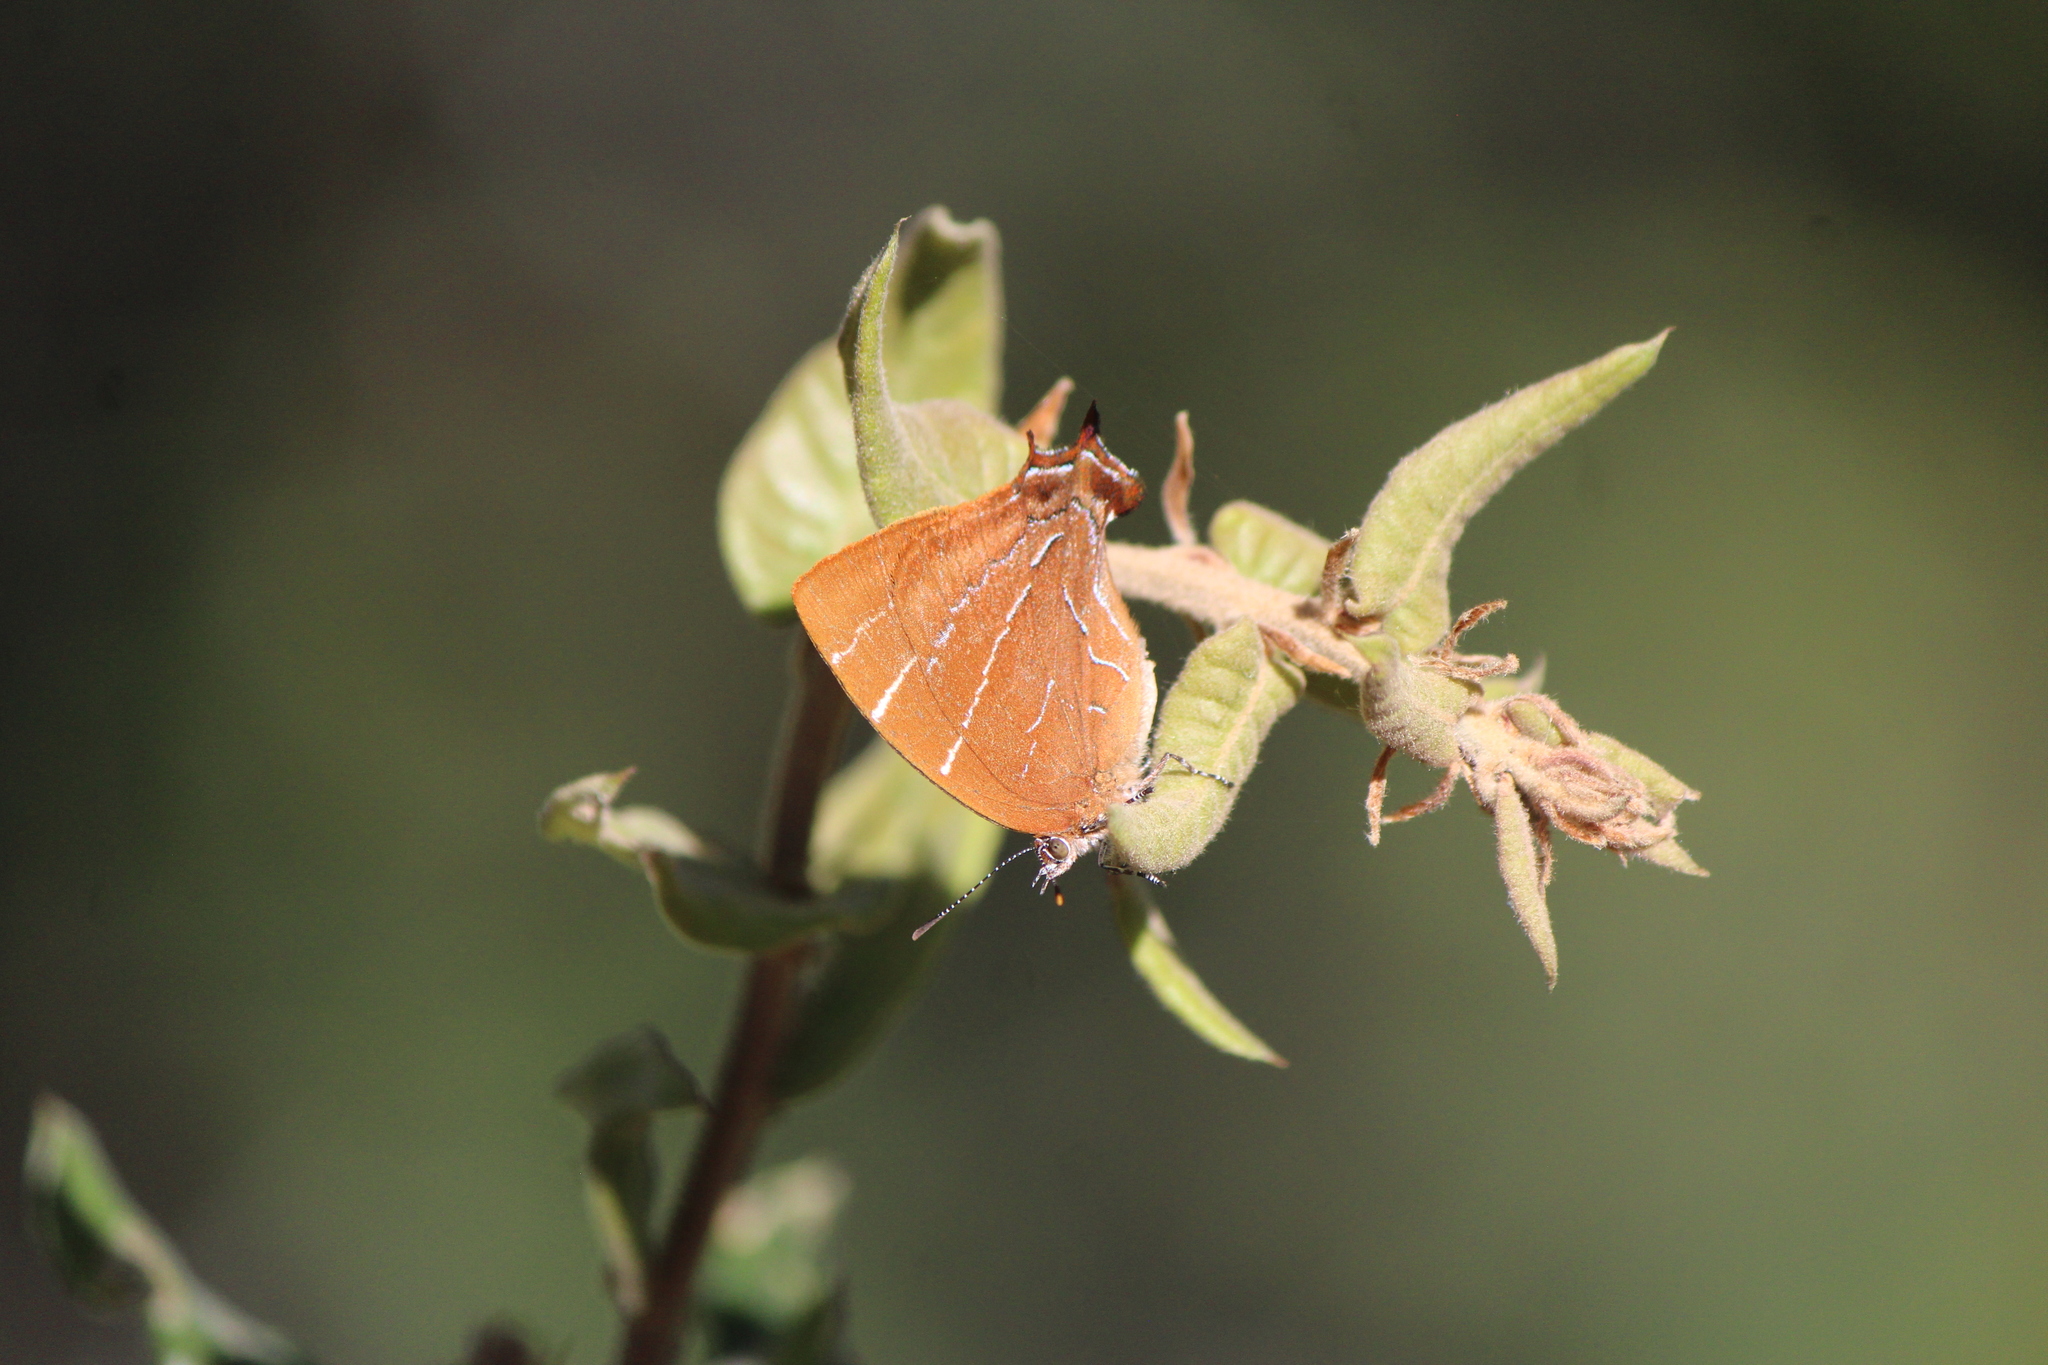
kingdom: Animalia
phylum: Arthropoda
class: Insecta
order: Lepidoptera
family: Lycaenidae
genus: Micandra
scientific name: Micandra
